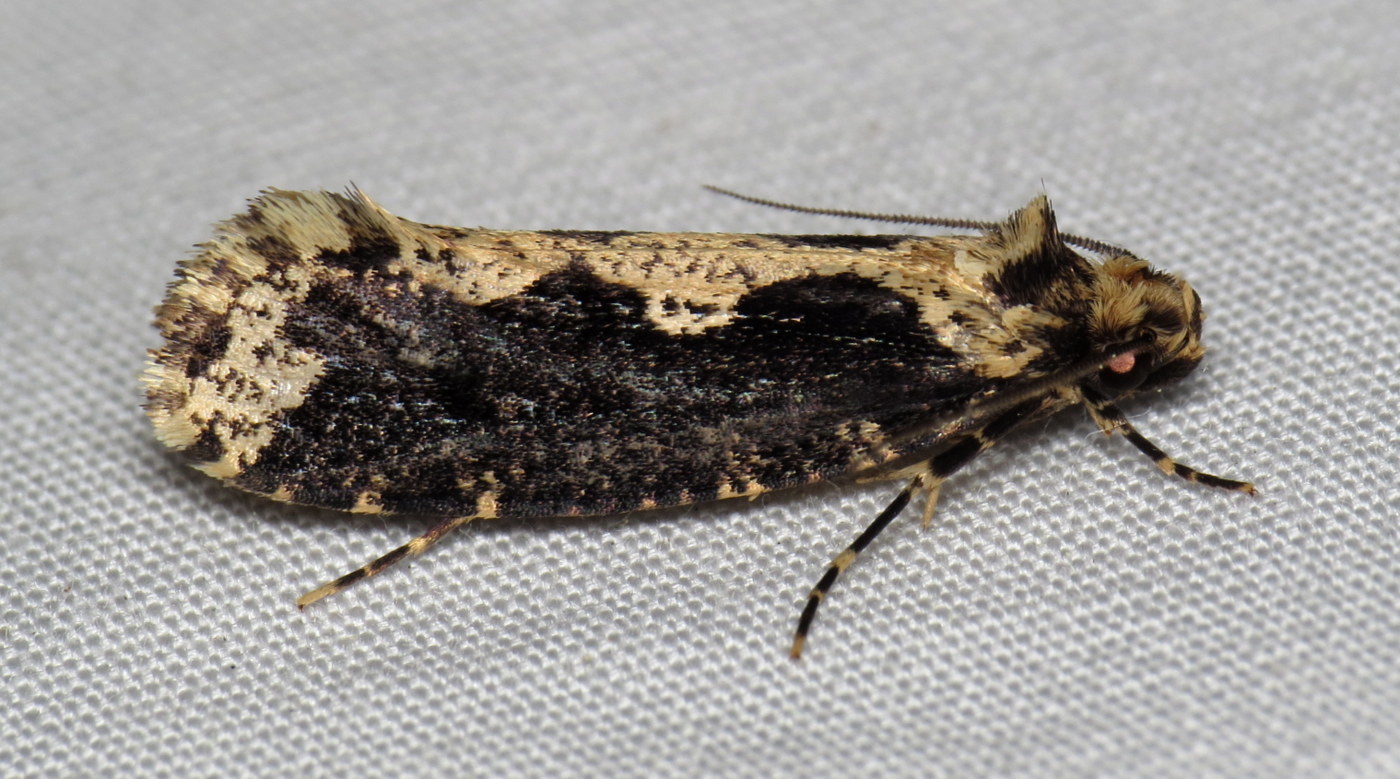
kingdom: Animalia
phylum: Arthropoda
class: Insecta
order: Lepidoptera
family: Tineidae
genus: Scardia
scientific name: Scardia anatomella
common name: Pied scardia
